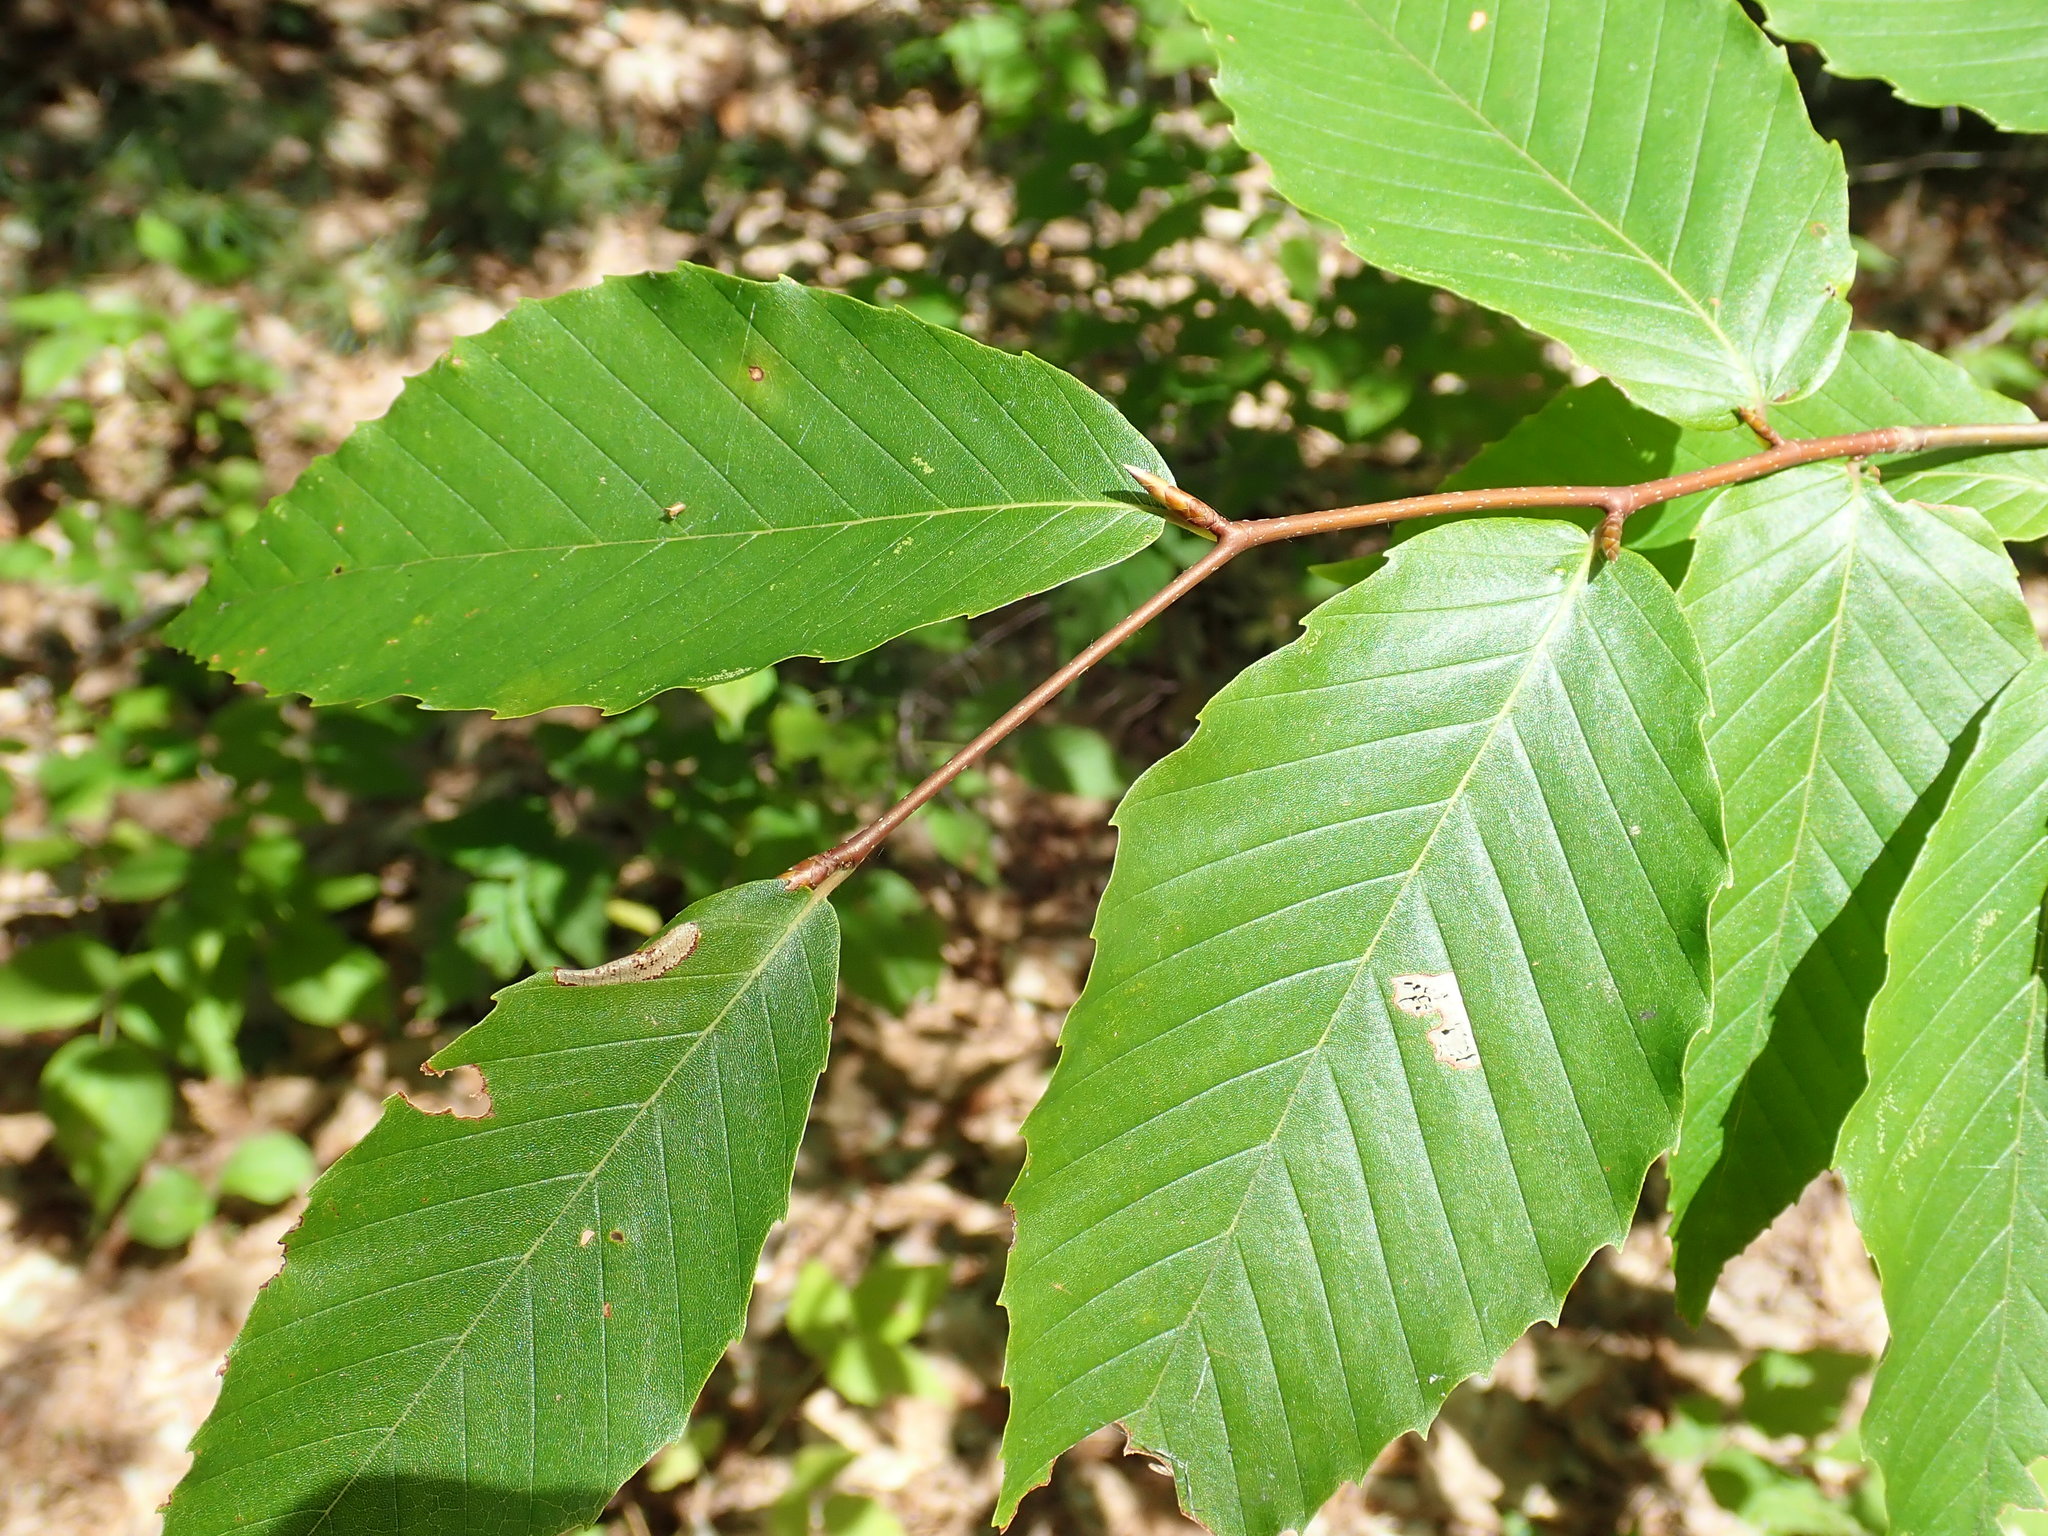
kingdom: Plantae
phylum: Tracheophyta
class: Magnoliopsida
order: Fagales
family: Fagaceae
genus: Fagus
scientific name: Fagus grandifolia
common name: American beech
